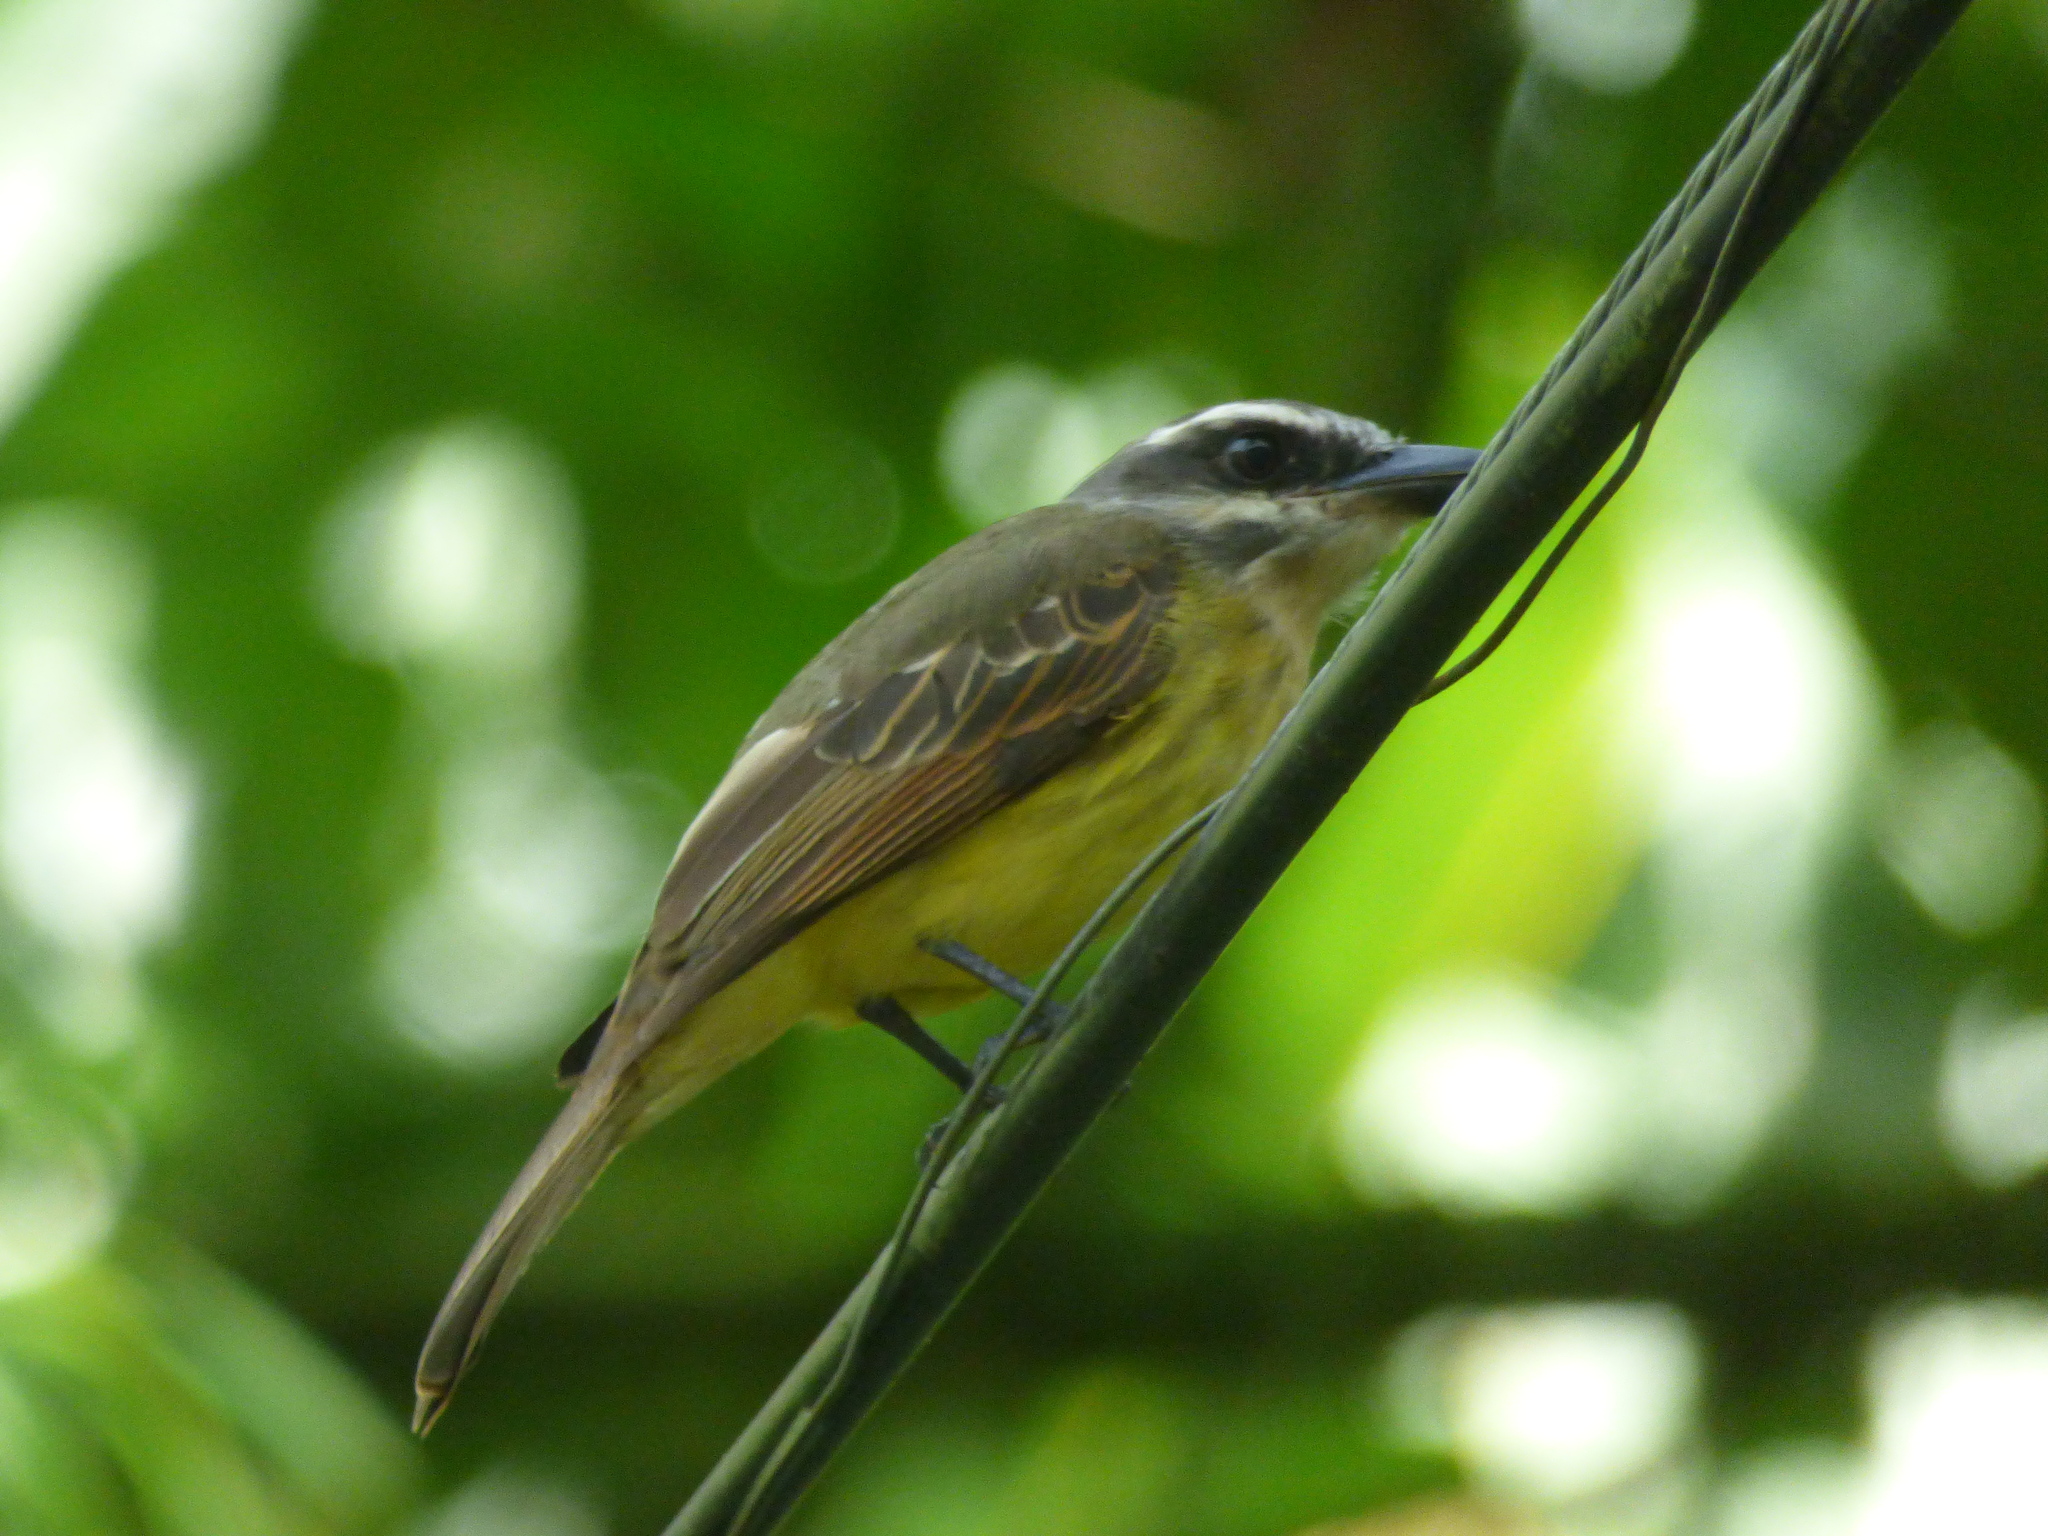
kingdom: Animalia
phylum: Chordata
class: Aves
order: Passeriformes
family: Tyrannidae
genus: Myiodynastes
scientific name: Myiodynastes hemichrysus
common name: Golden-bellied flycatcher
